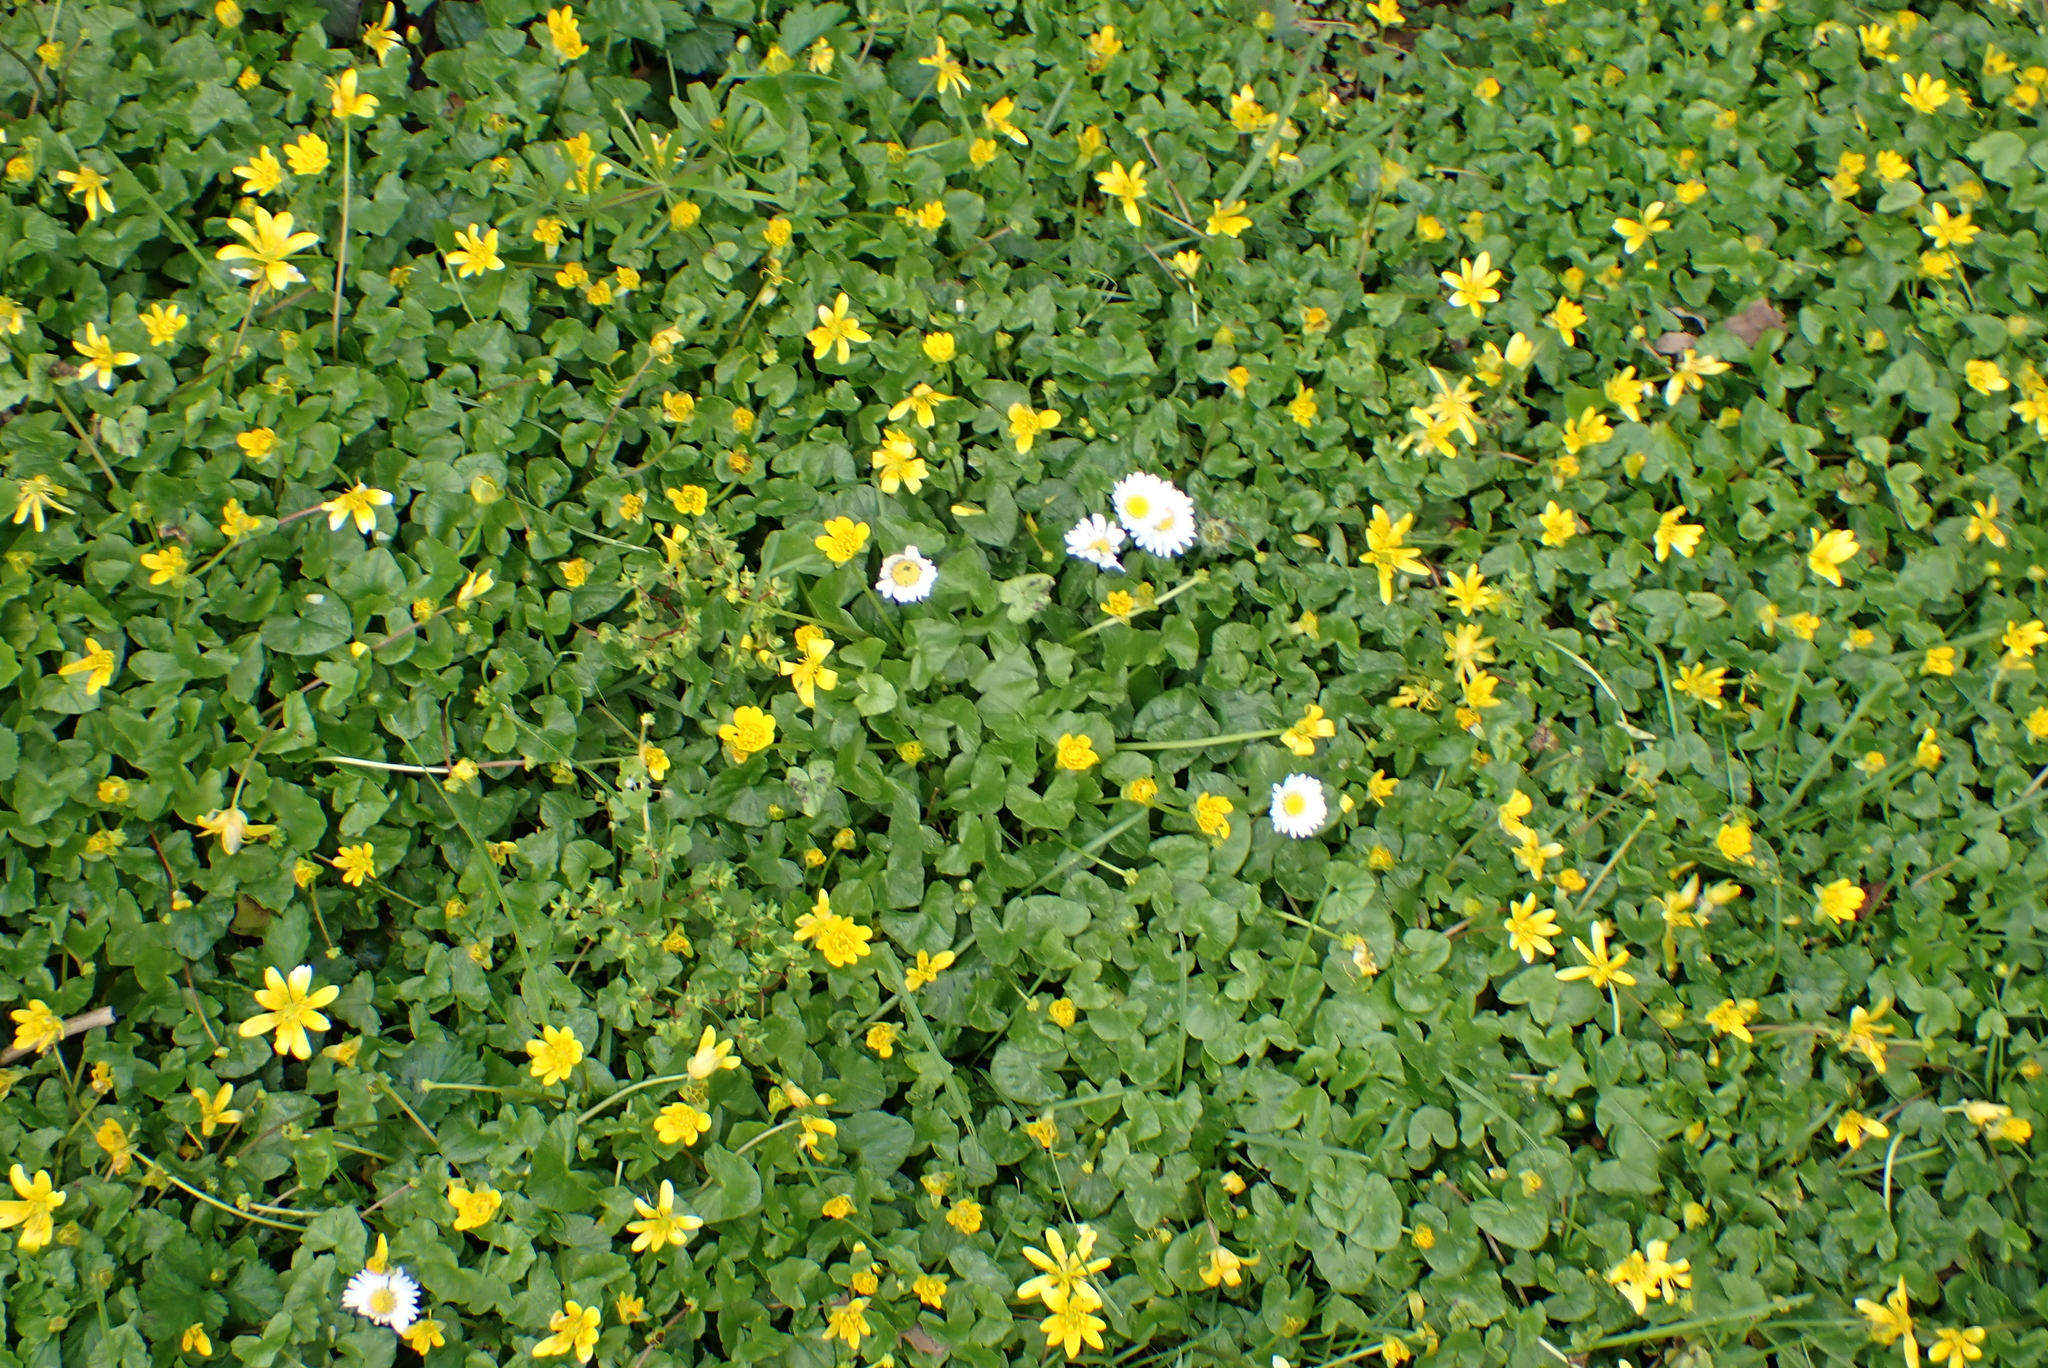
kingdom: Plantae
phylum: Tracheophyta
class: Magnoliopsida
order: Ranunculales
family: Ranunculaceae
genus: Ficaria
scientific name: Ficaria verna
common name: Lesser celandine
